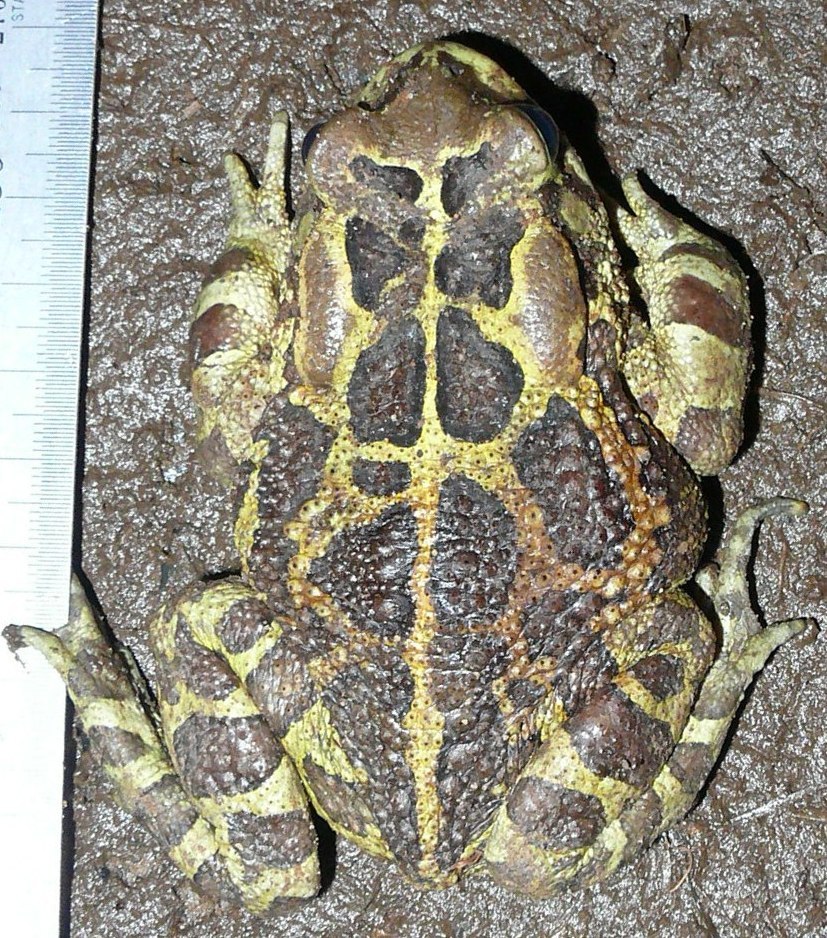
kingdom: Animalia
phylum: Chordata
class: Amphibia
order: Anura
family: Bufonidae
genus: Sclerophrys
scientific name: Sclerophrys pantherina
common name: Panther toad
